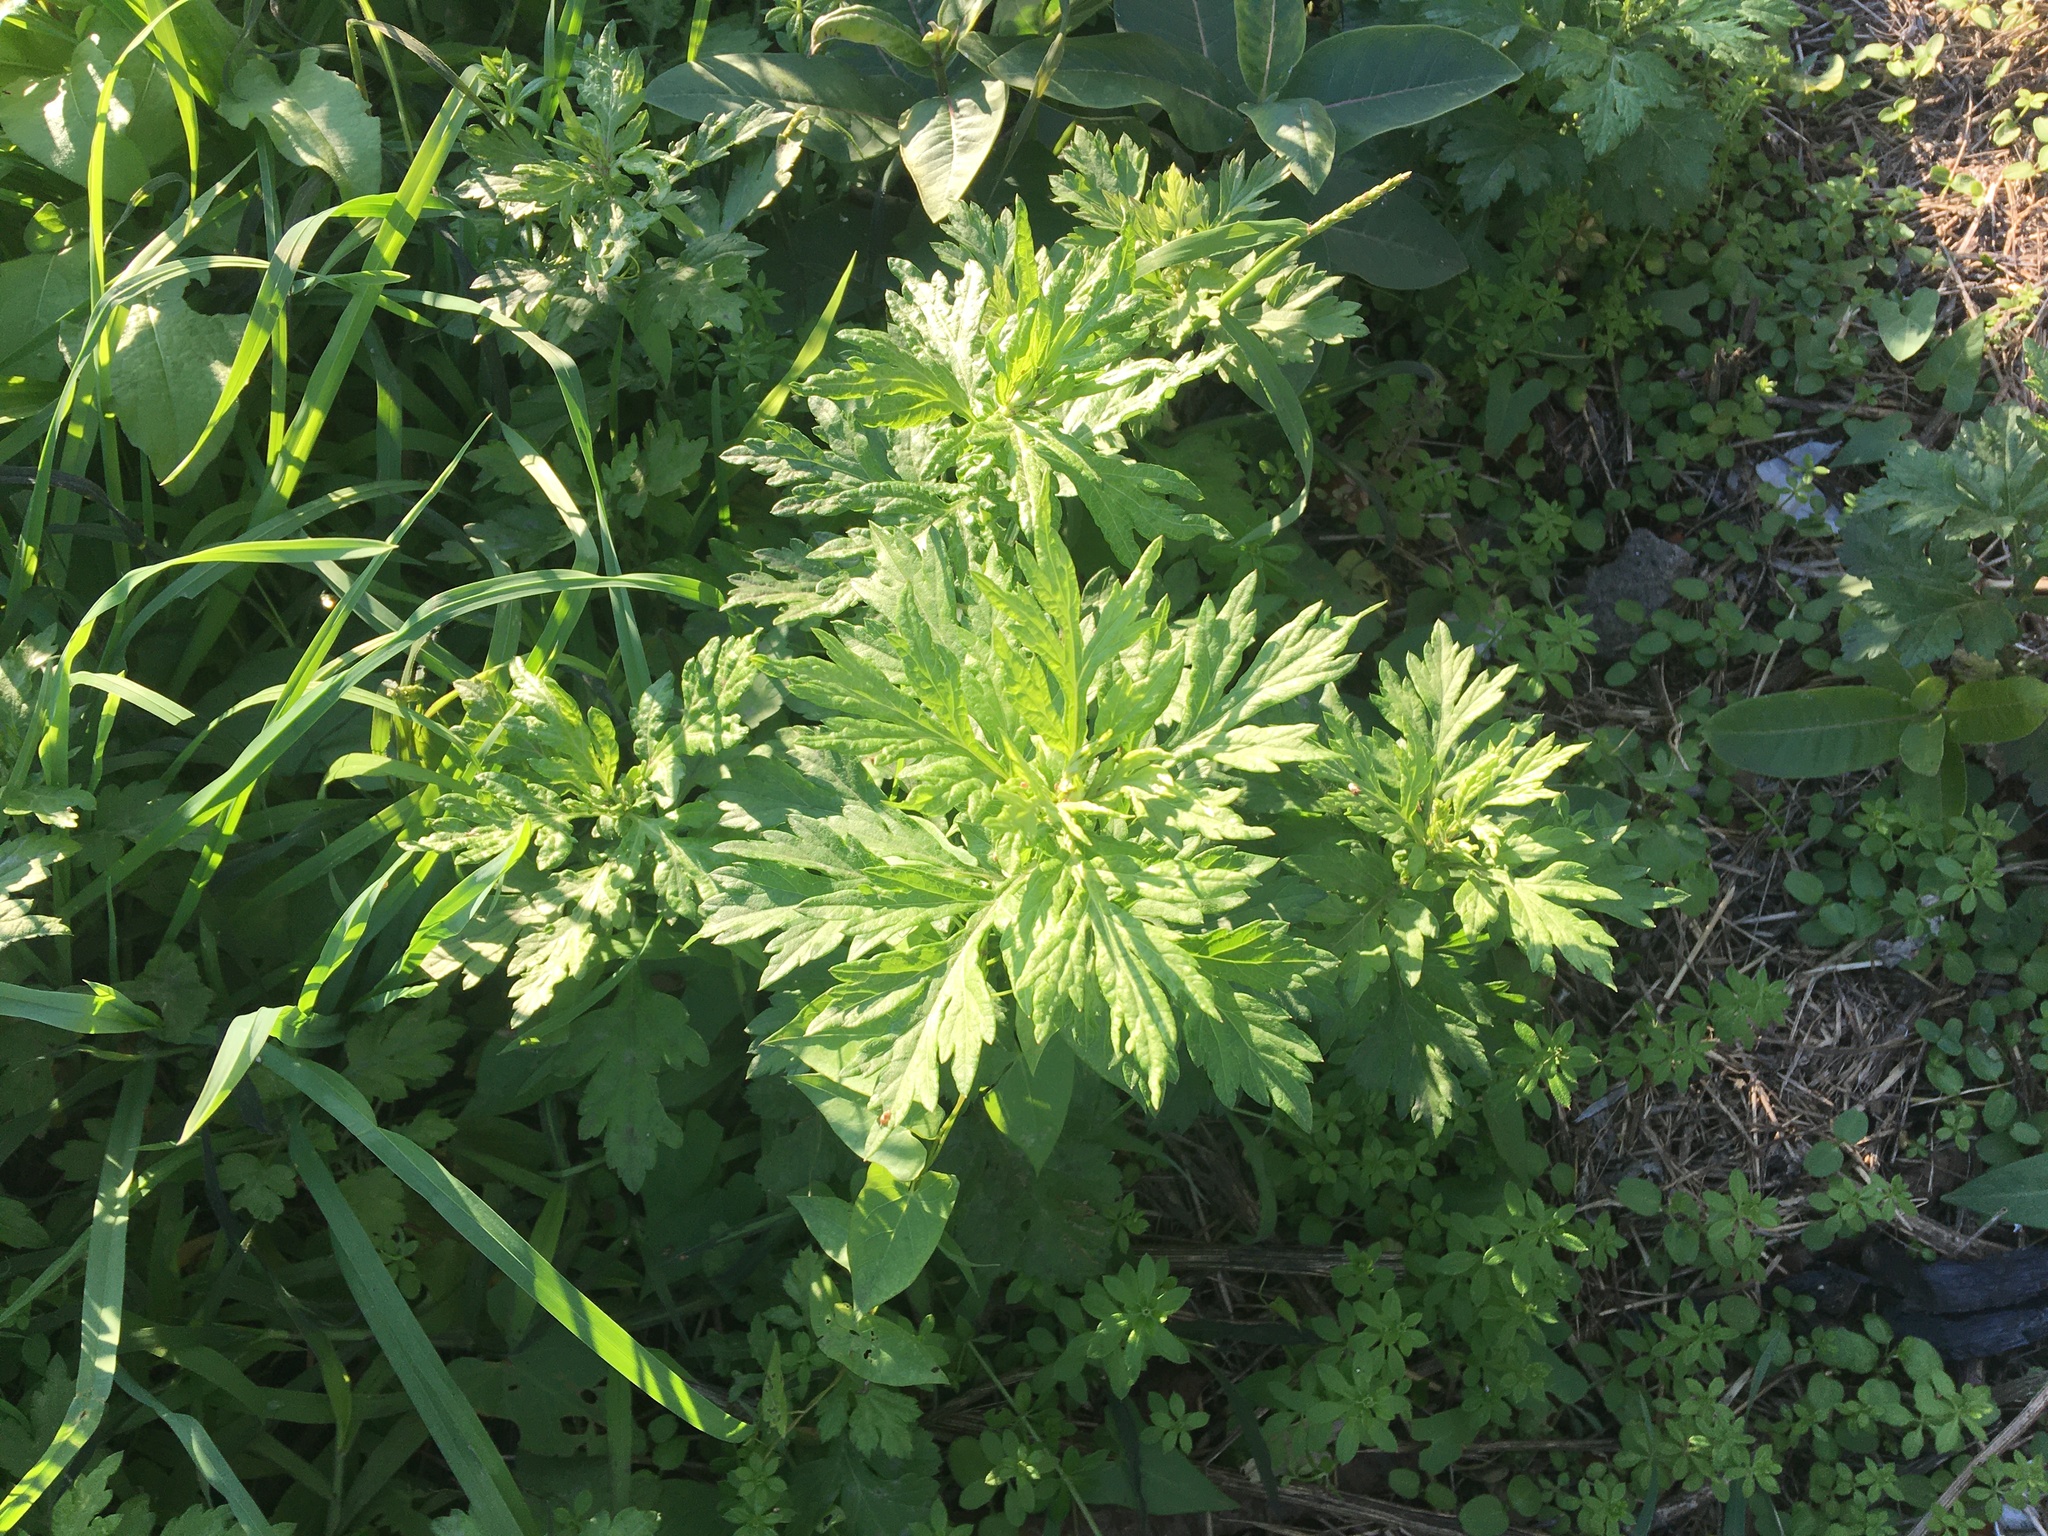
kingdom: Plantae
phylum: Tracheophyta
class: Magnoliopsida
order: Asterales
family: Asteraceae
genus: Artemisia
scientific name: Artemisia vulgaris
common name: Mugwort
